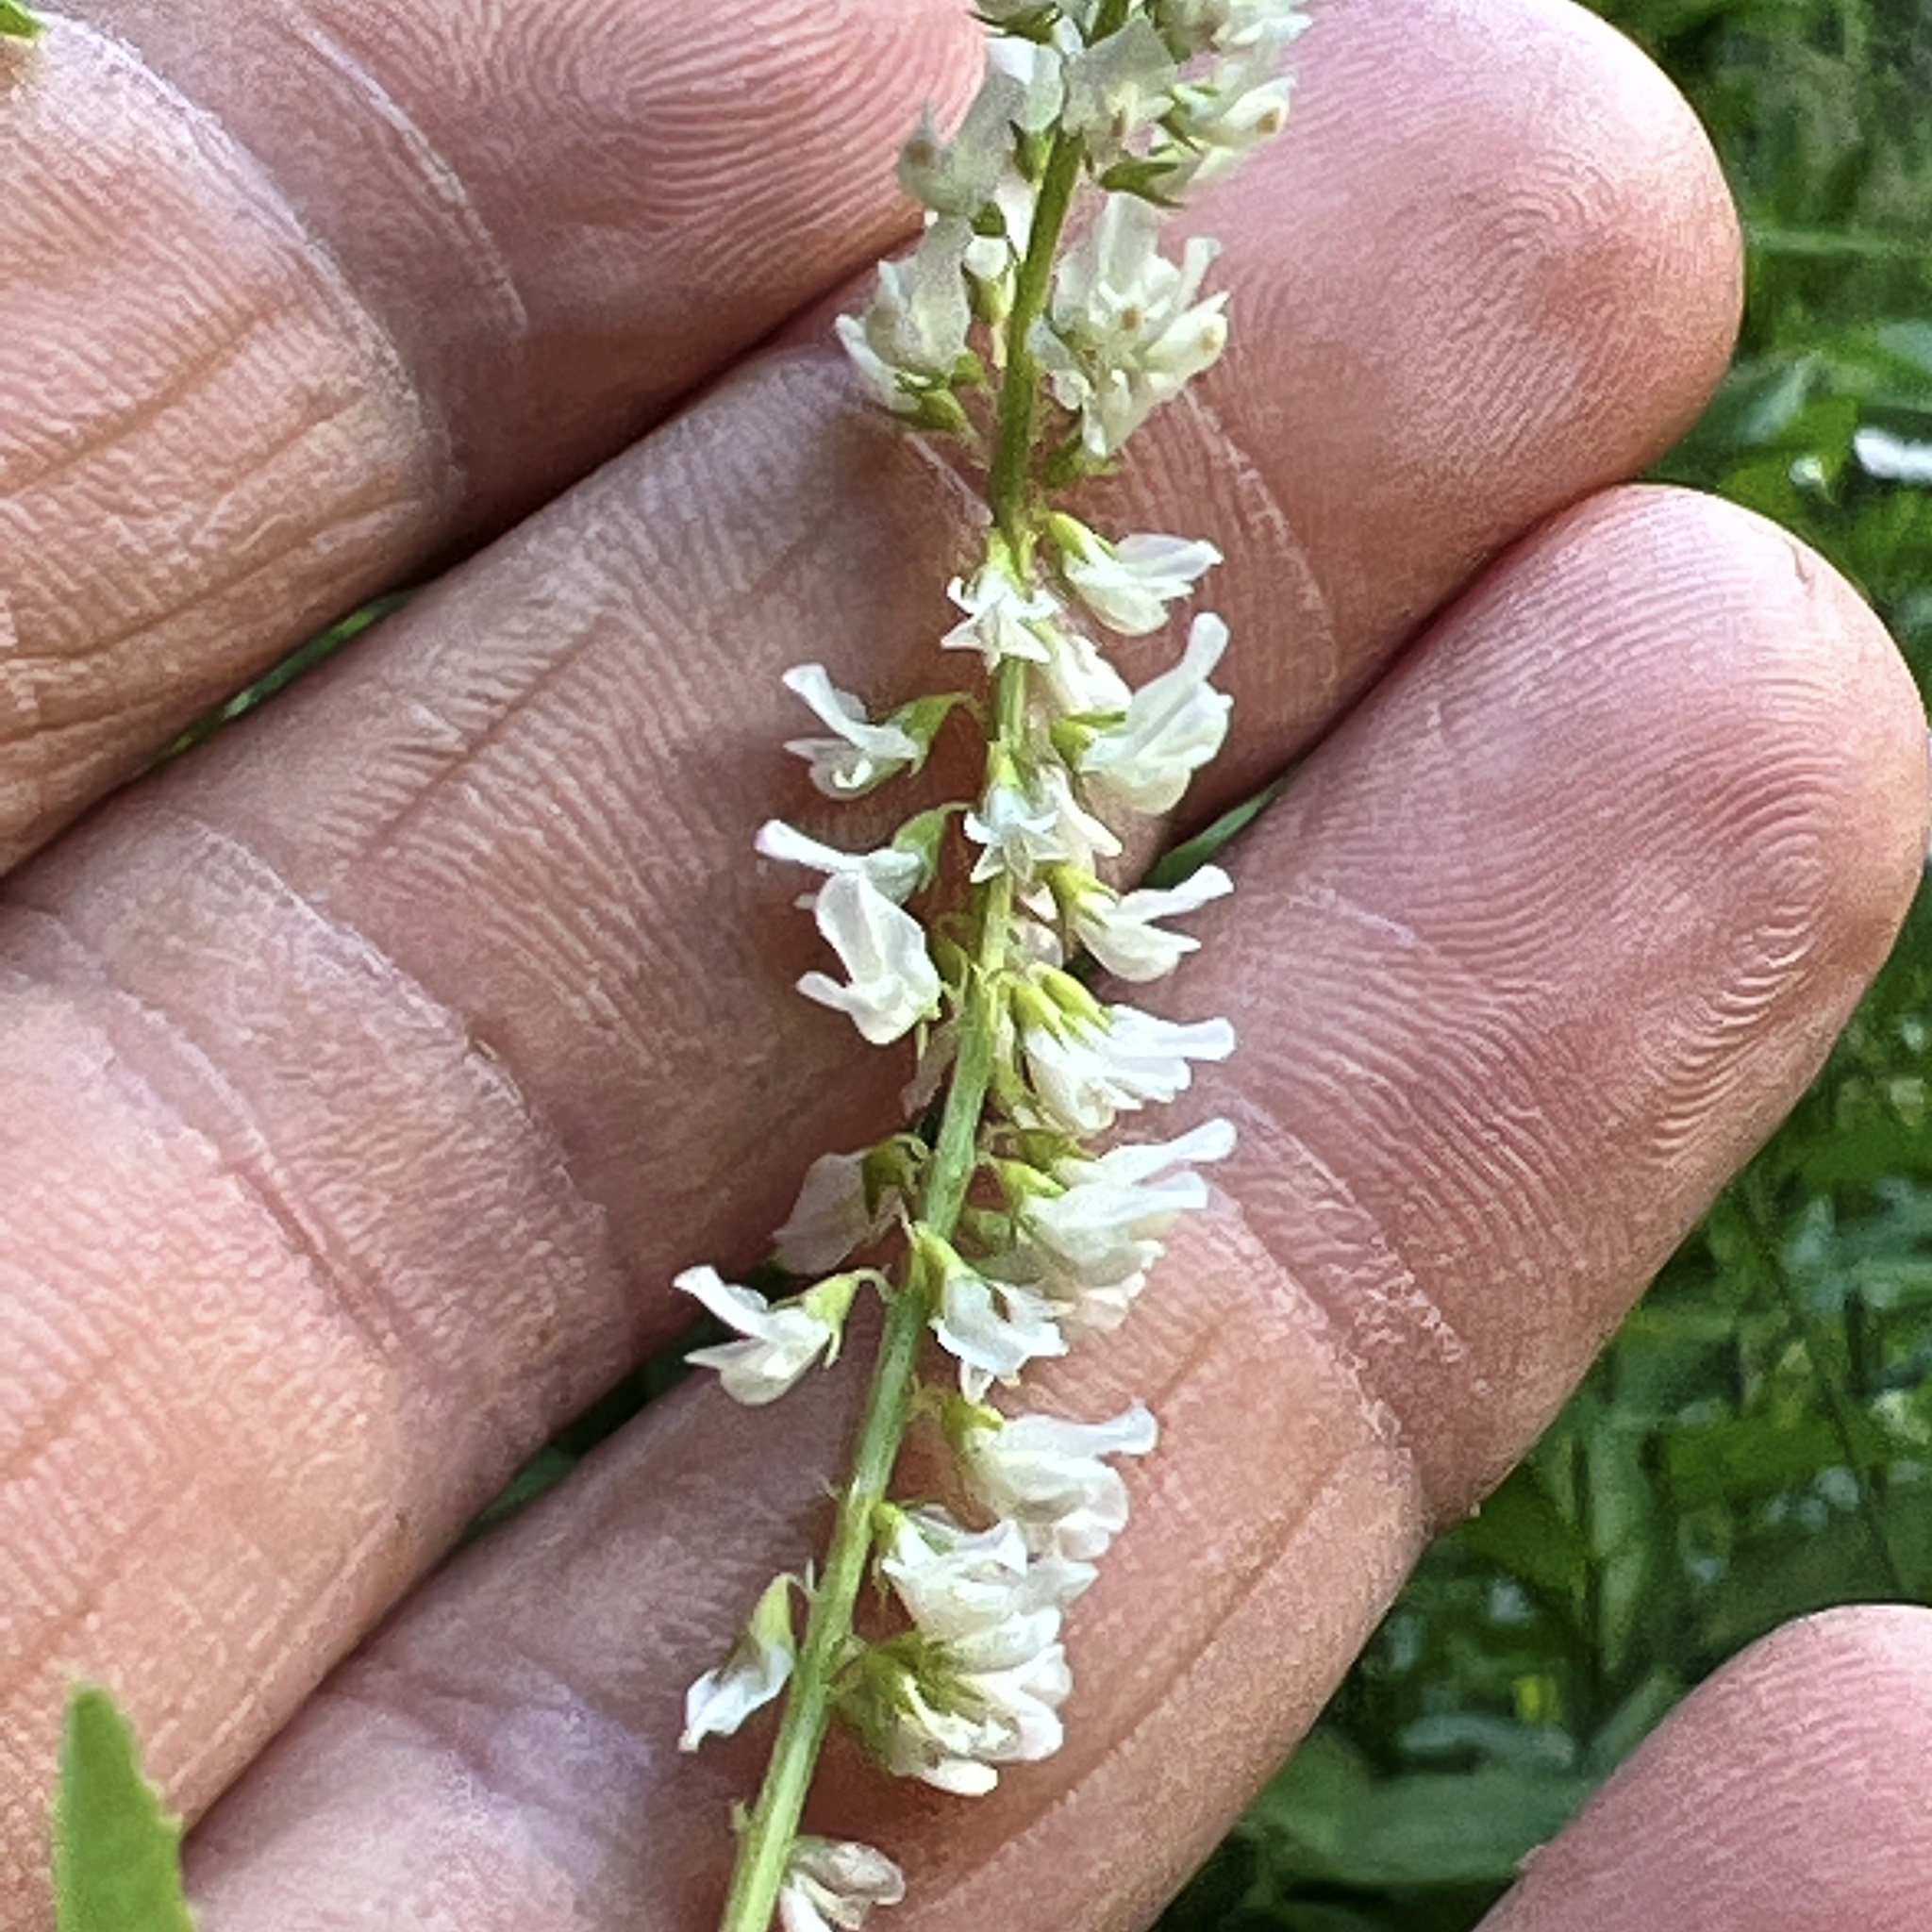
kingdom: Plantae
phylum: Tracheophyta
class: Magnoliopsida
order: Fabales
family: Fabaceae
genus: Melilotus
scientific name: Melilotus albus
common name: White melilot
